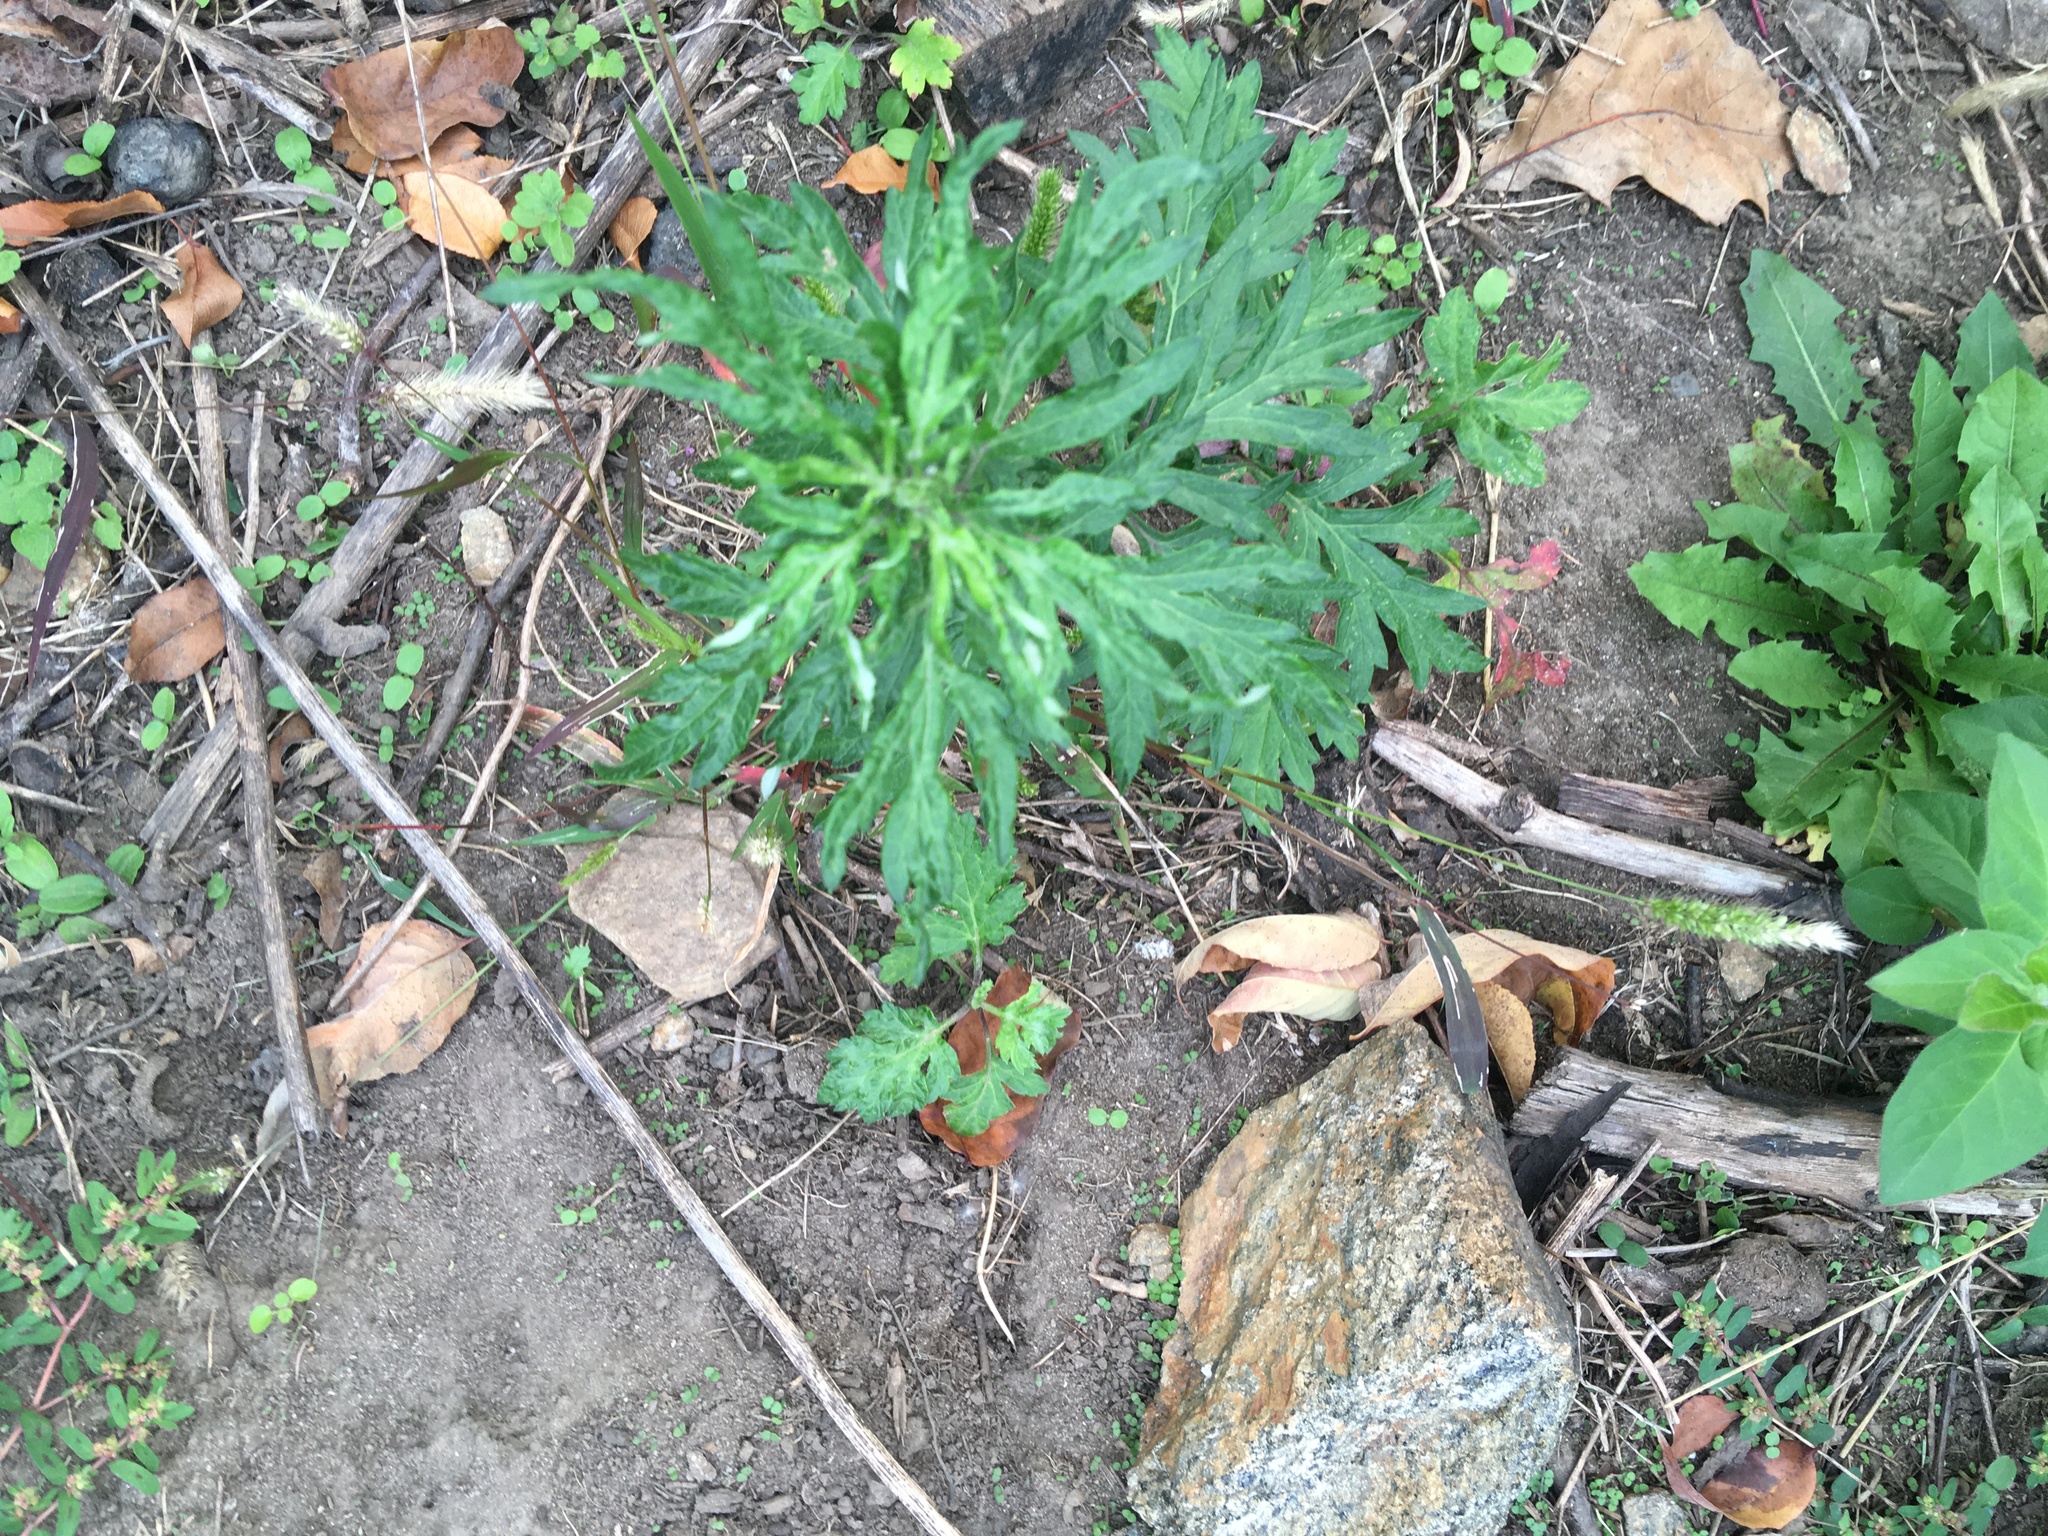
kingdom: Plantae
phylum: Tracheophyta
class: Magnoliopsida
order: Asterales
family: Asteraceae
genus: Artemisia
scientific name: Artemisia vulgaris
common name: Mugwort
